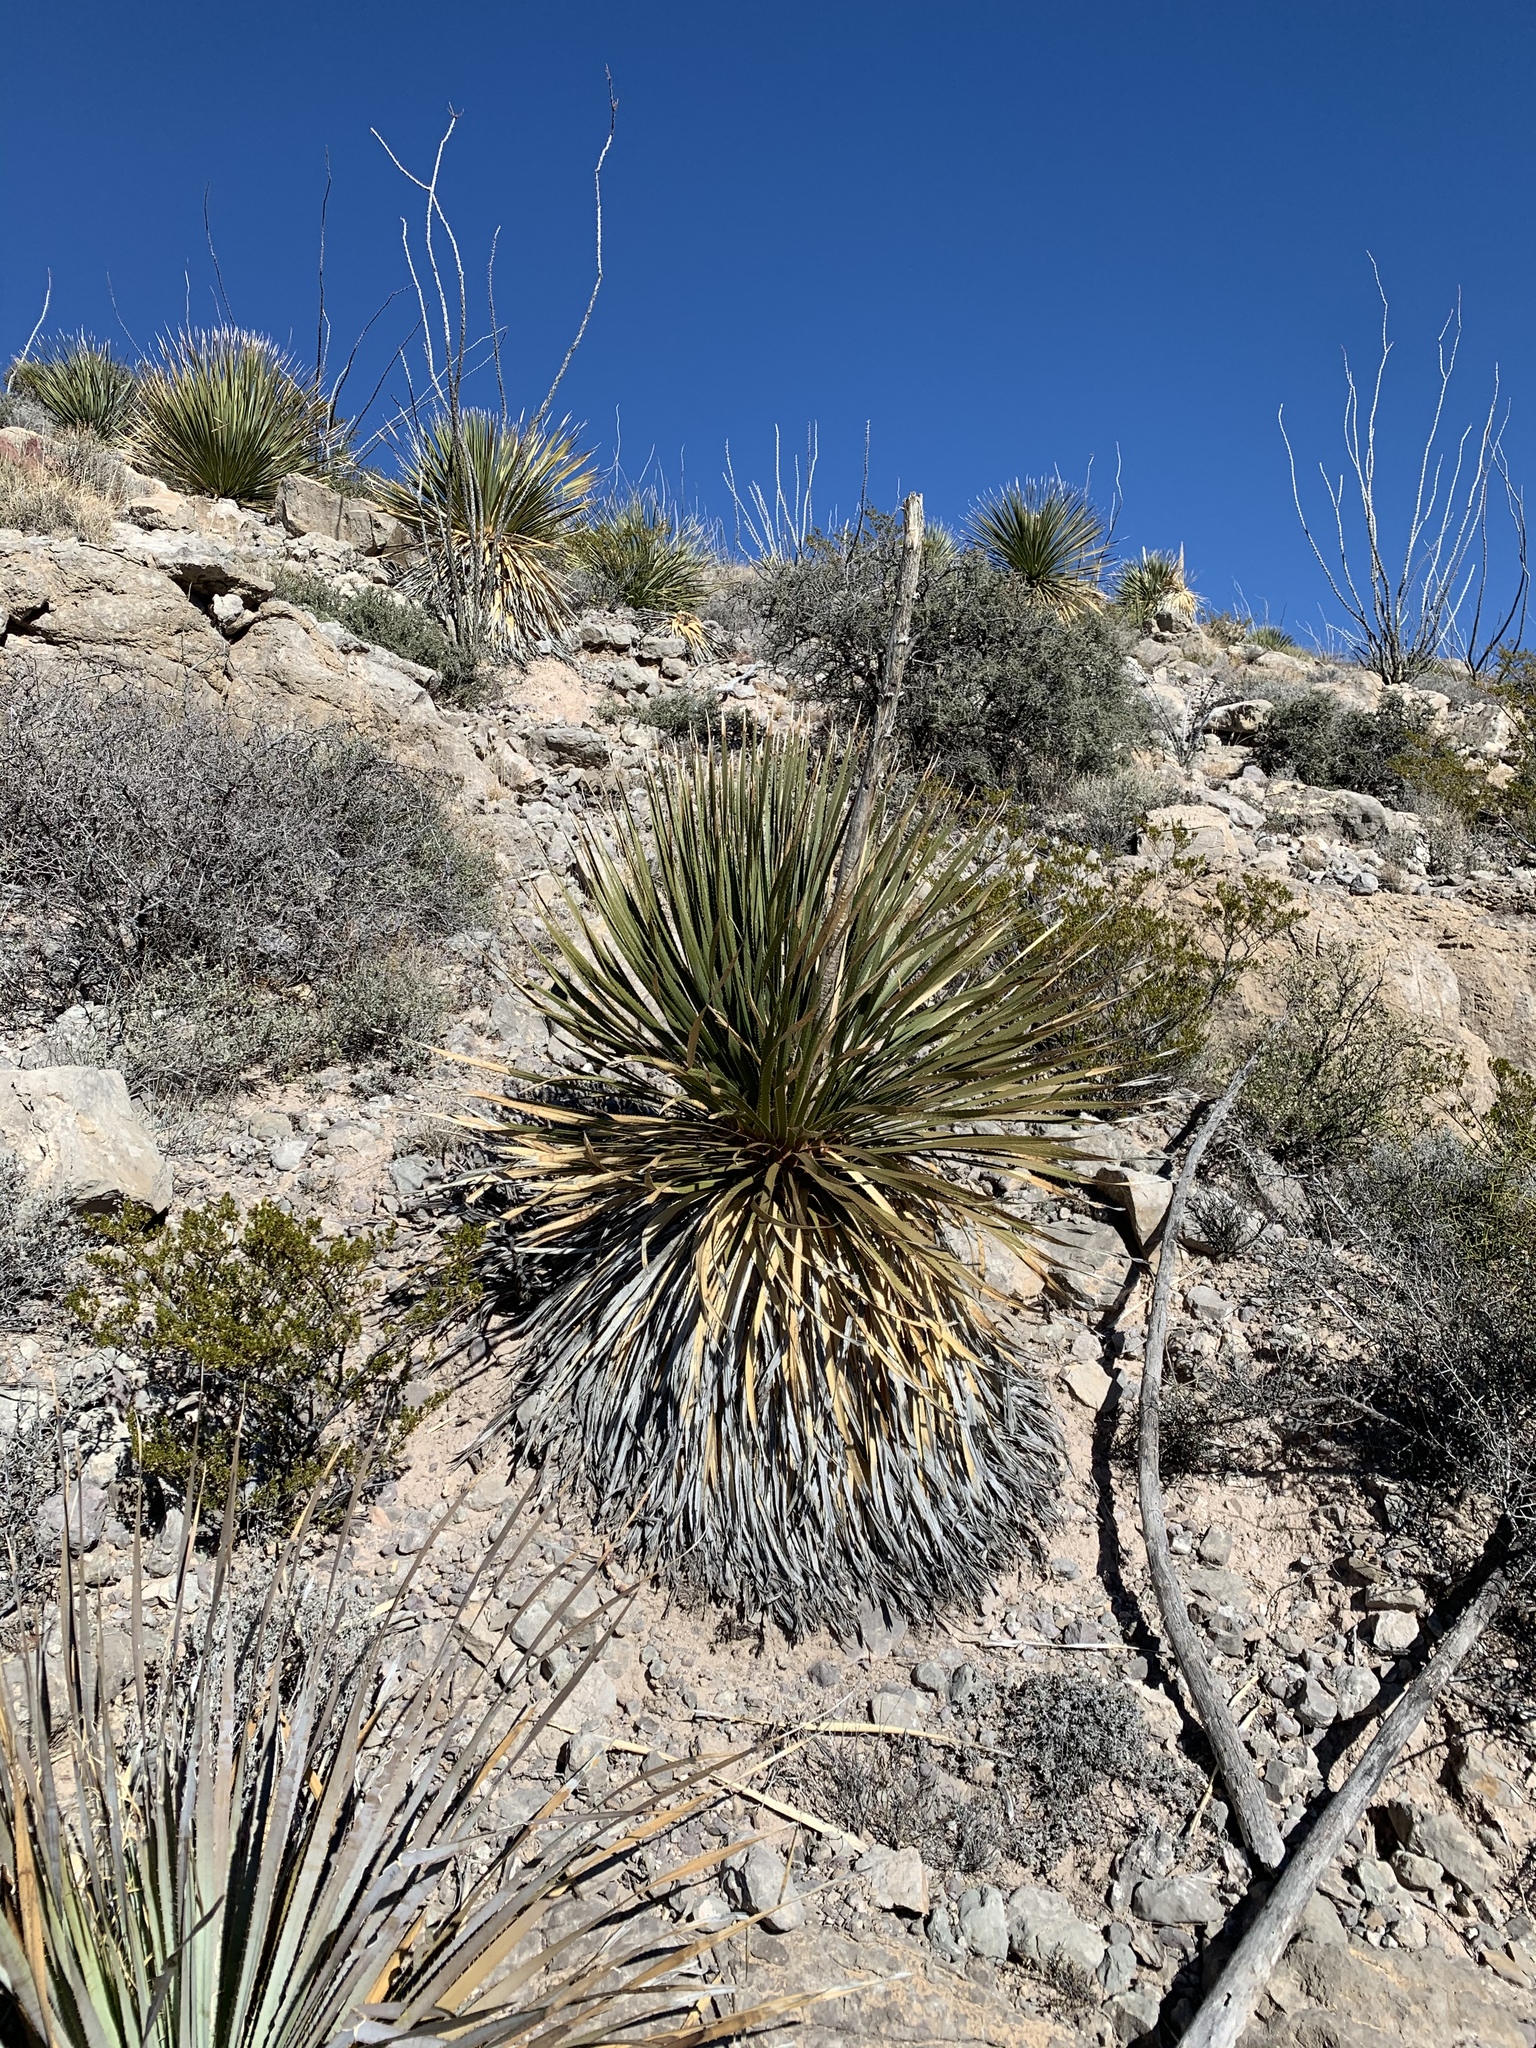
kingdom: Plantae
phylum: Tracheophyta
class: Liliopsida
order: Asparagales
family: Asparagaceae
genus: Dasylirion
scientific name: Dasylirion wheeleri
